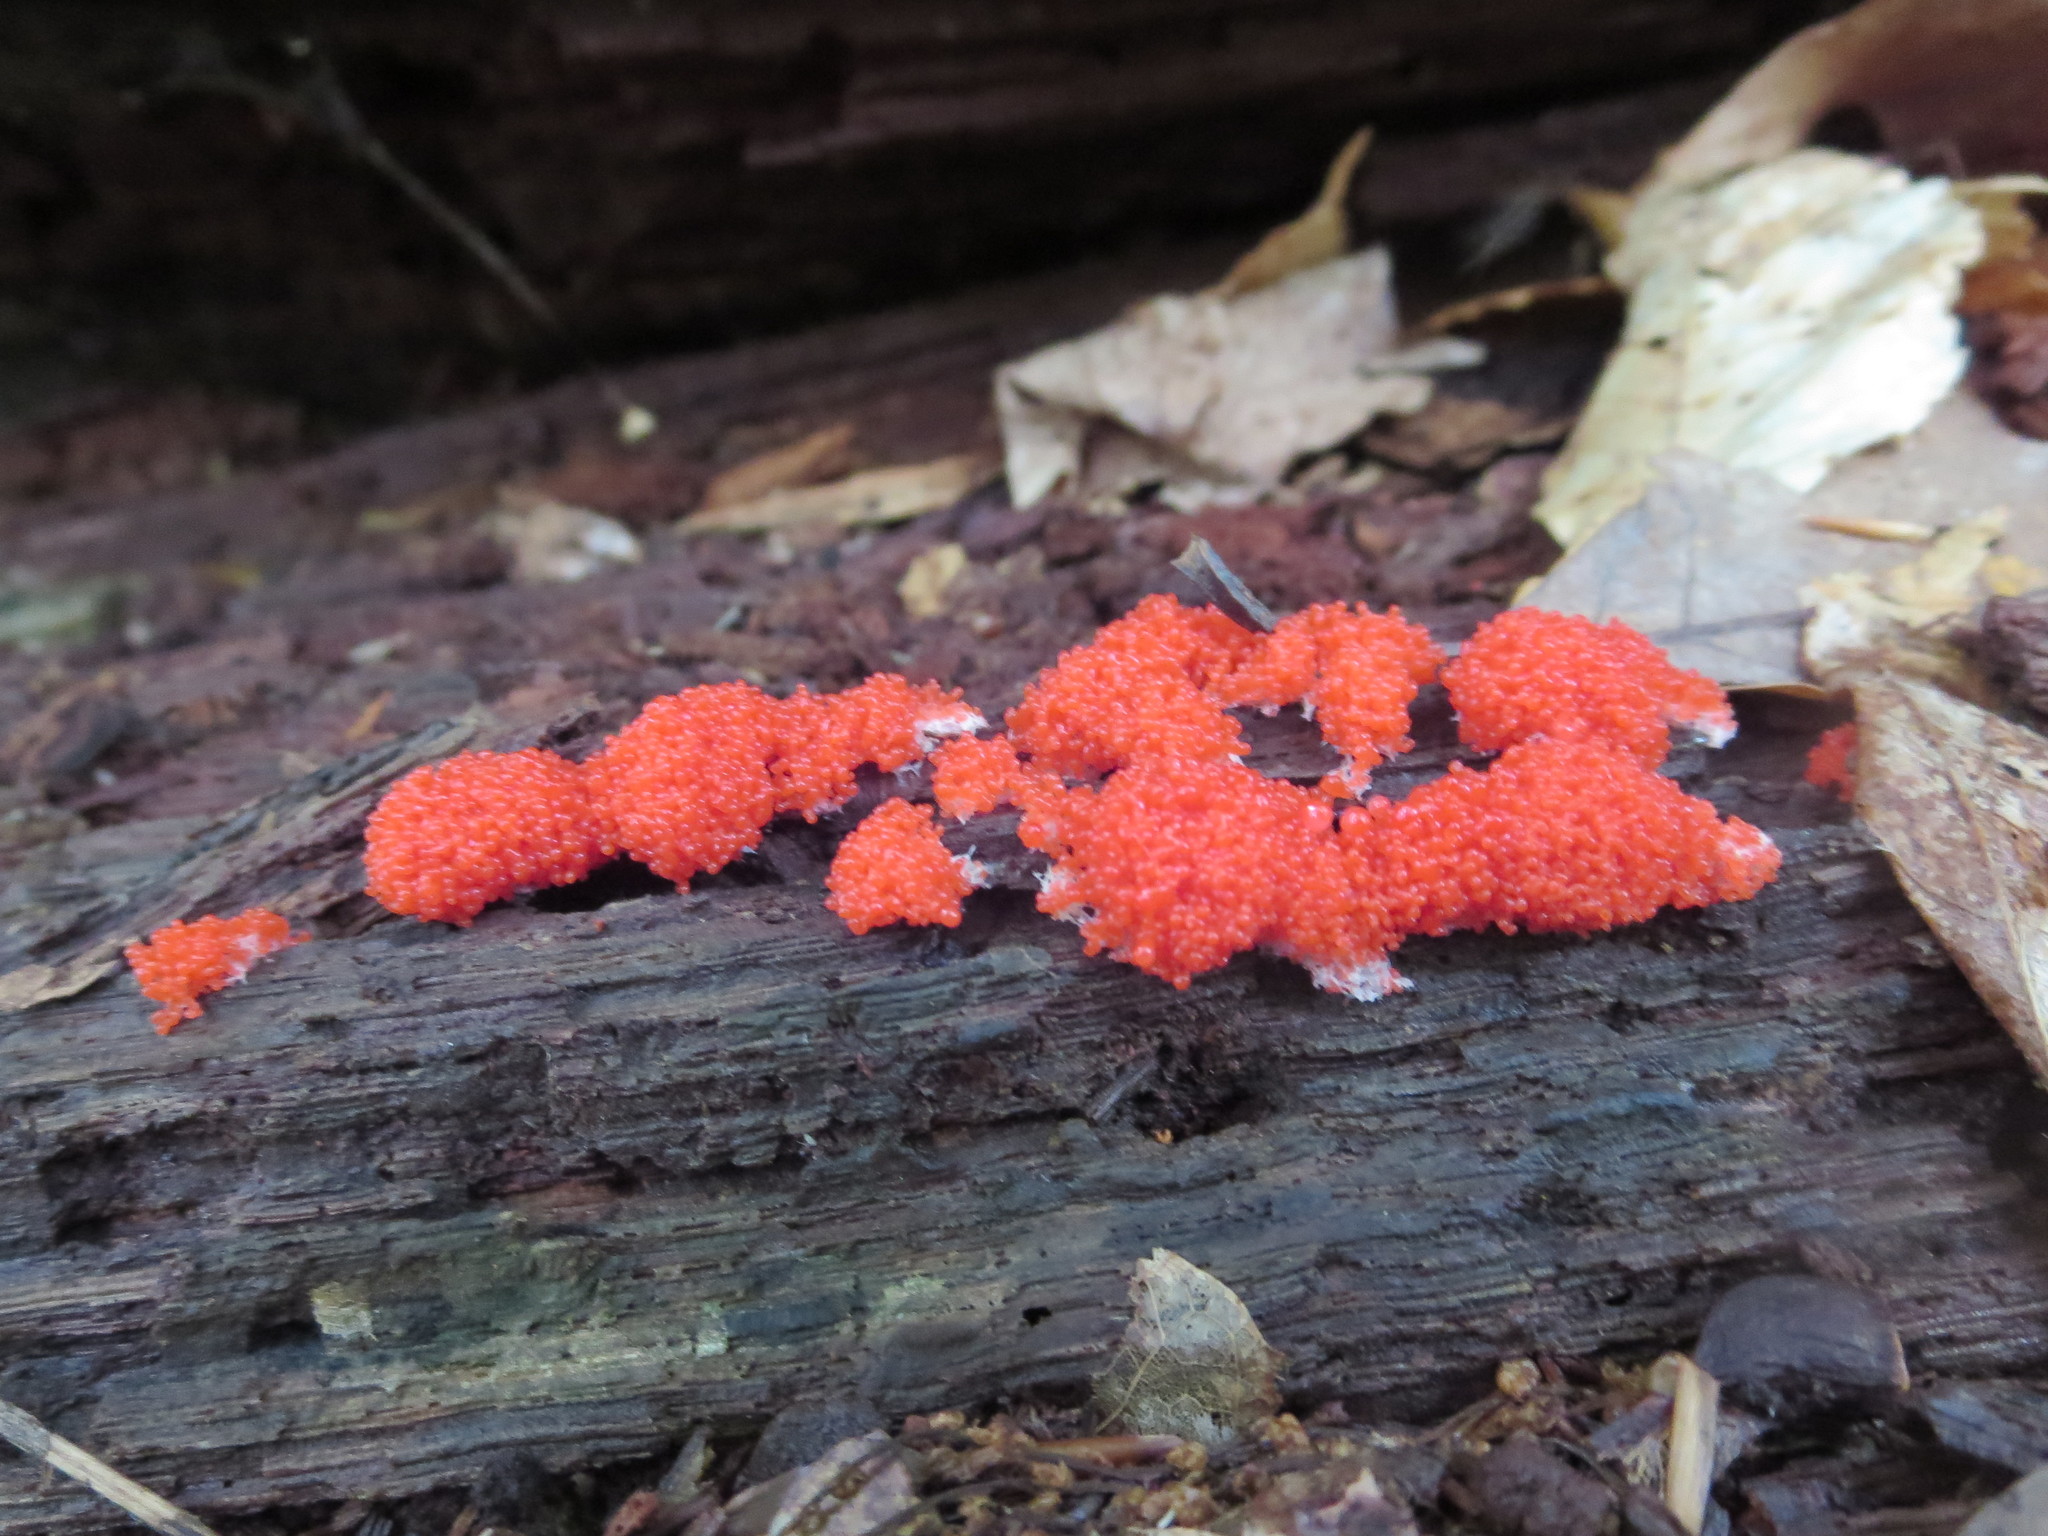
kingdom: Protozoa
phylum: Mycetozoa
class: Myxomycetes
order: Cribrariales
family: Tubiferaceae
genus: Tubifera
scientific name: Tubifera ferruginosa
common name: Red raspberry slime mold
